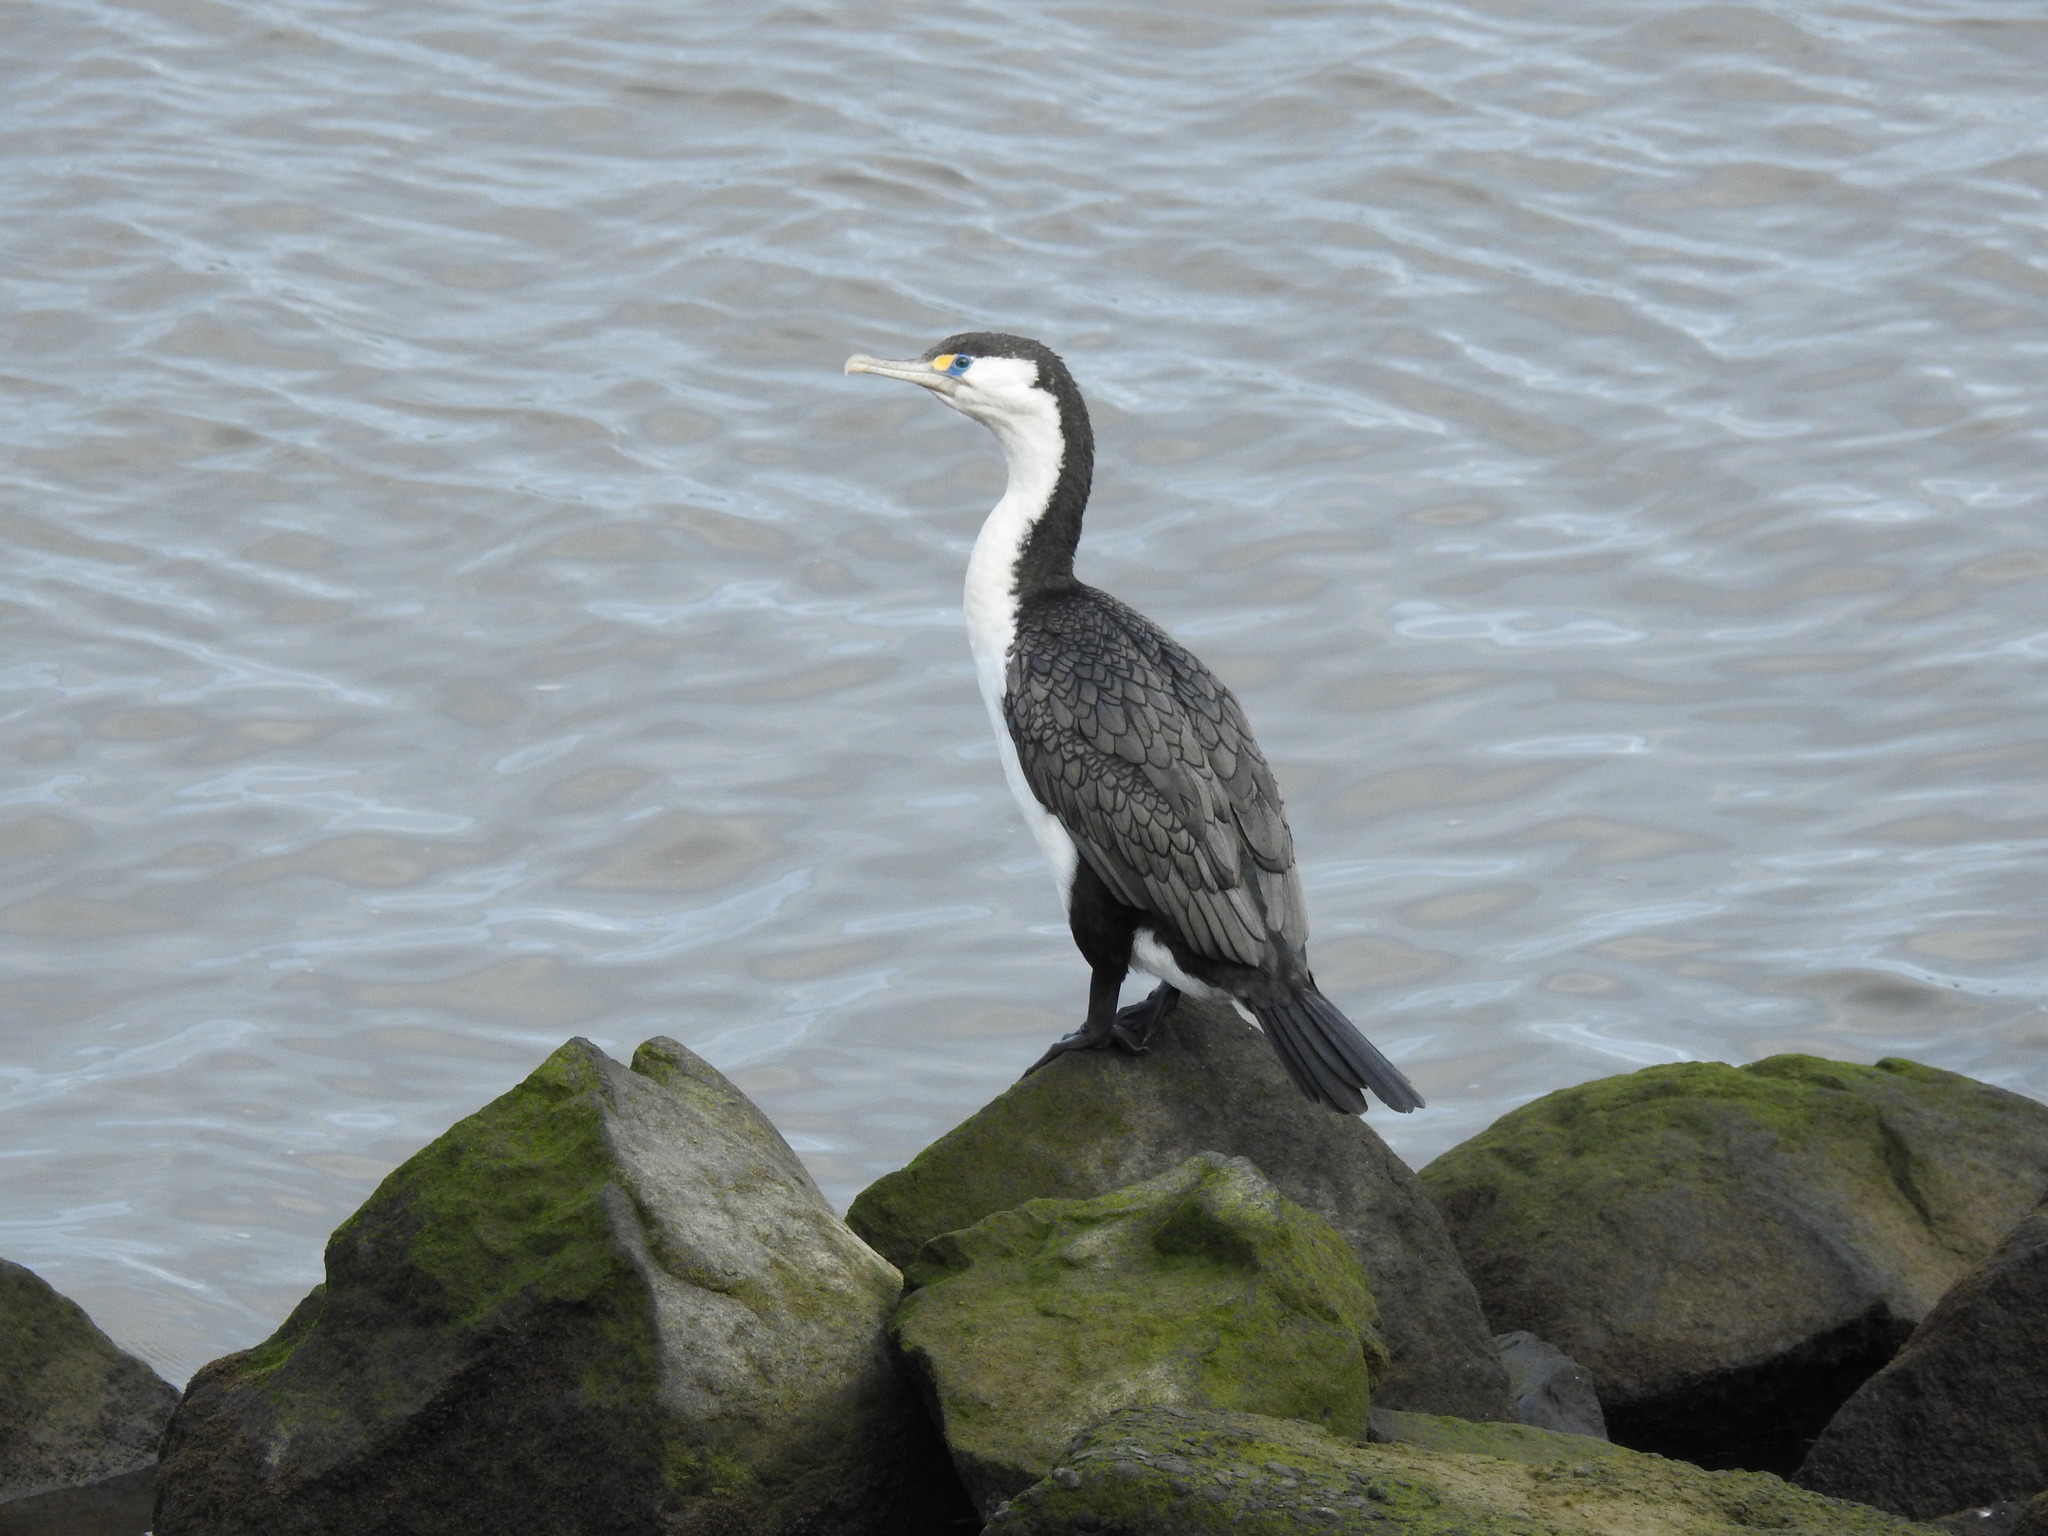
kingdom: Animalia
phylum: Chordata
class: Aves
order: Suliformes
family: Phalacrocoracidae
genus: Phalacrocorax
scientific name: Phalacrocorax varius
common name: Pied cormorant
